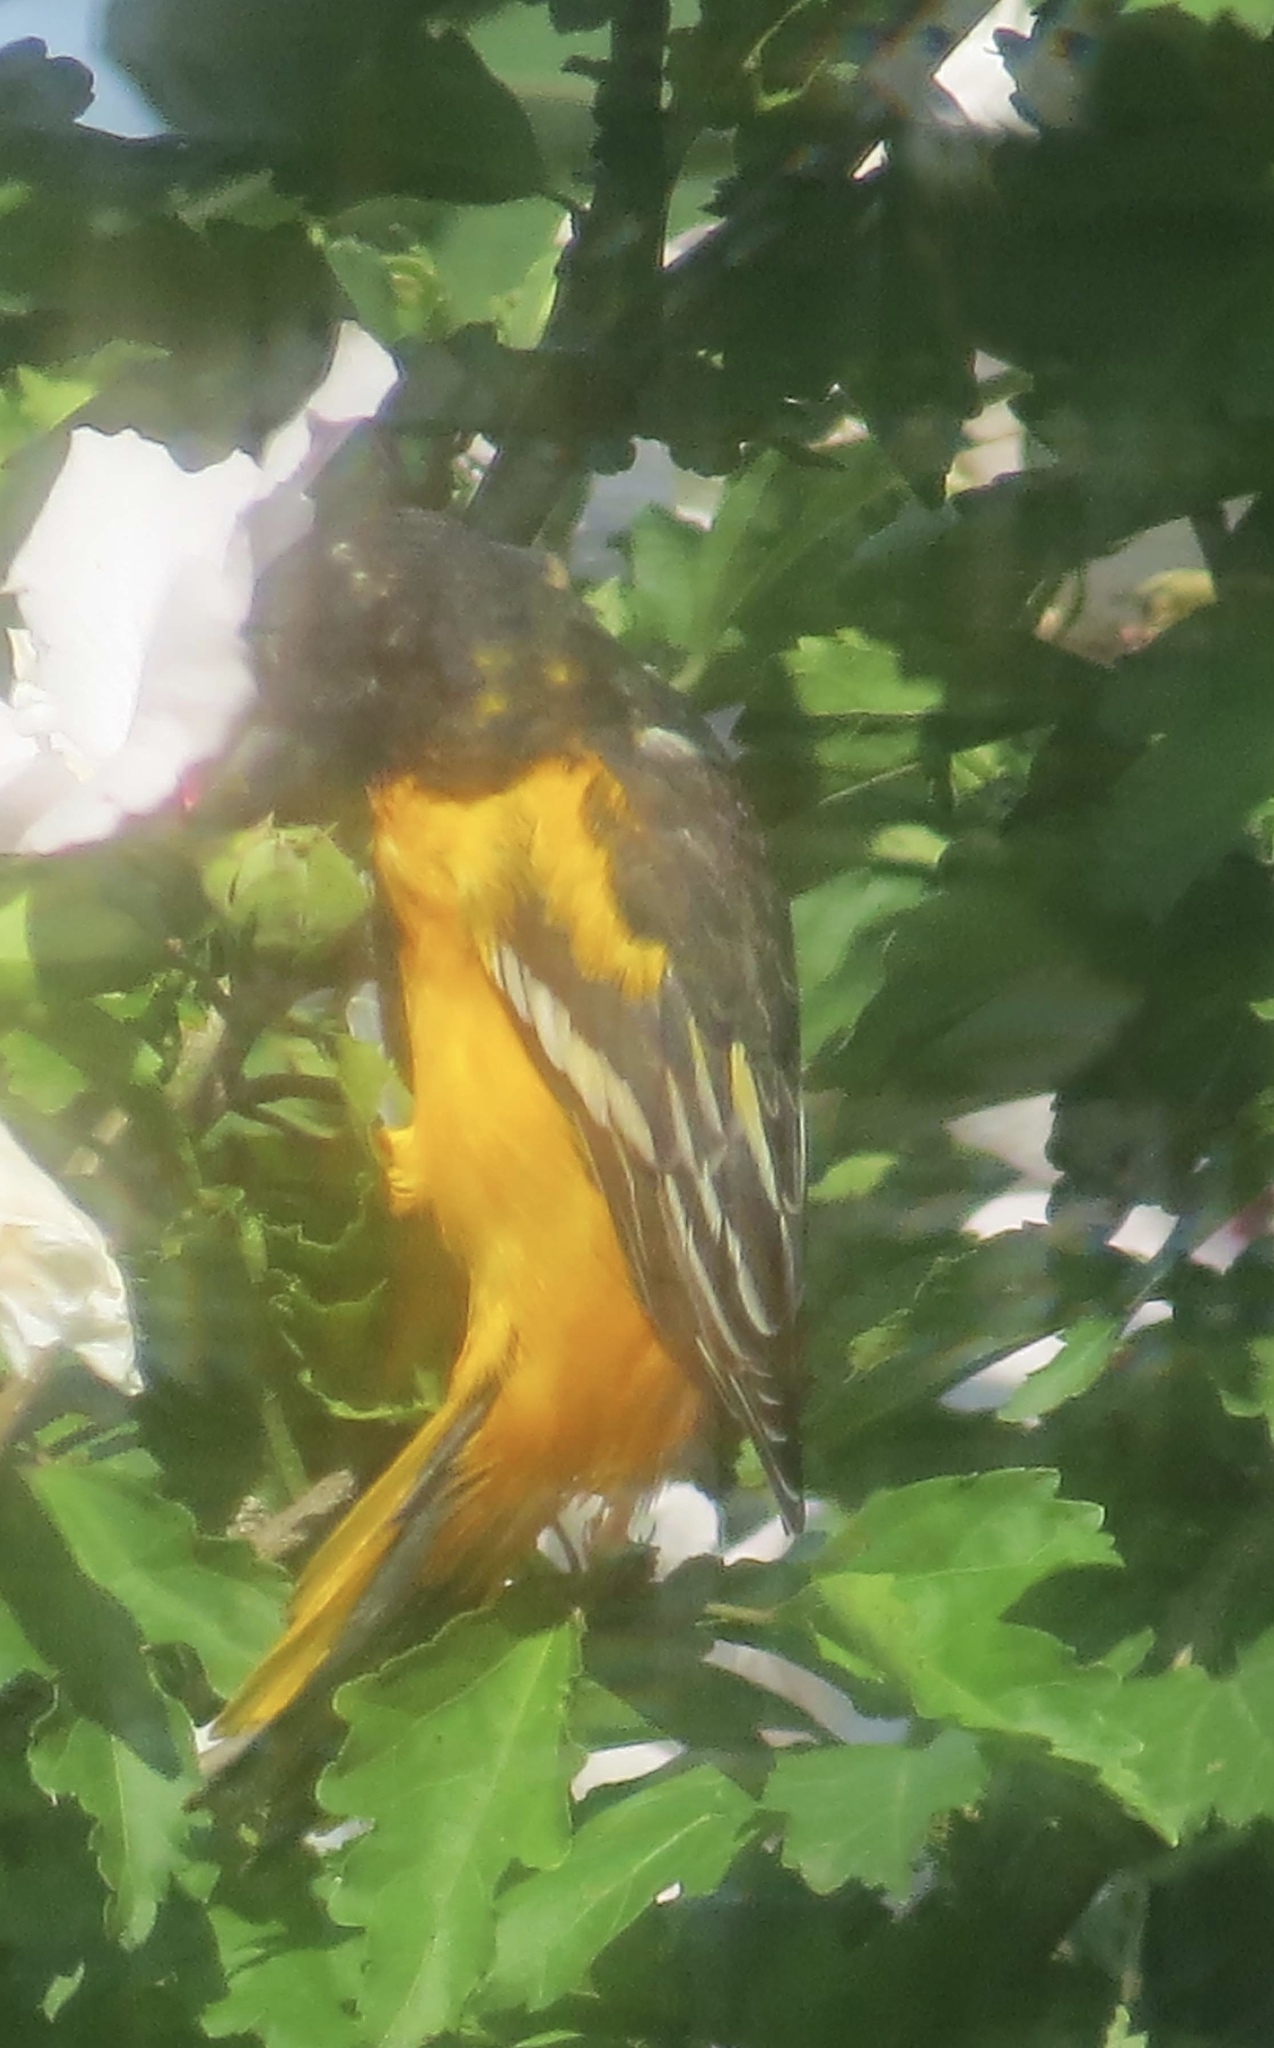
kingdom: Animalia
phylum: Chordata
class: Aves
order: Passeriformes
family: Icteridae
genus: Icterus
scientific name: Icterus galbula
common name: Baltimore oriole
